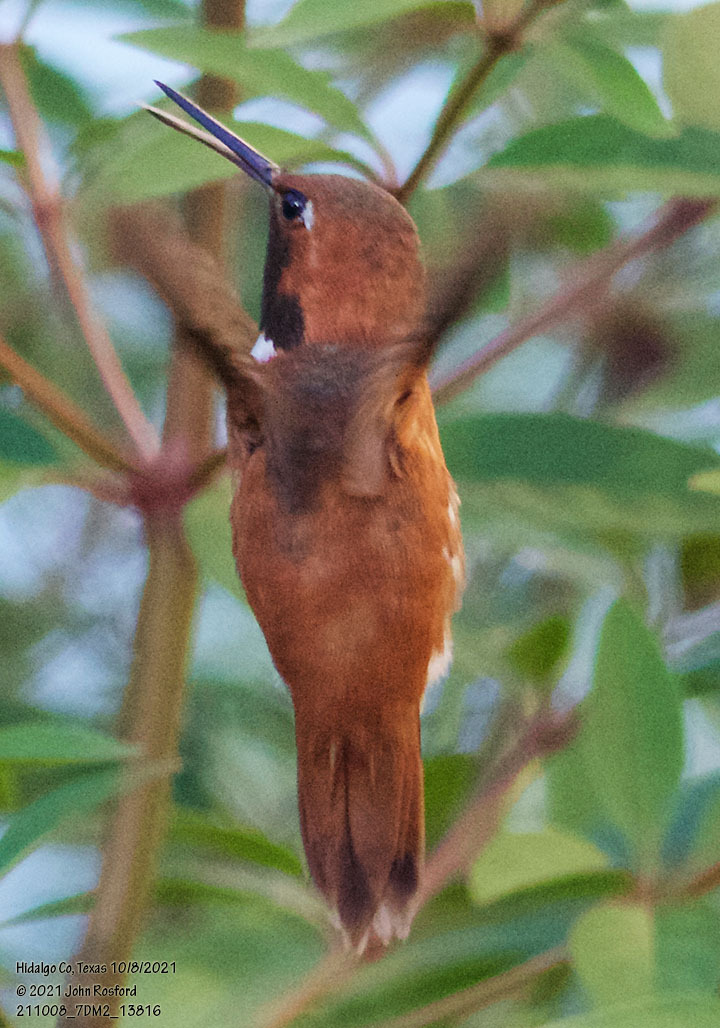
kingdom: Animalia
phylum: Chordata
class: Aves
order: Apodiformes
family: Trochilidae
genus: Selasphorus
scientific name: Selasphorus rufus
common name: Rufous hummingbird
